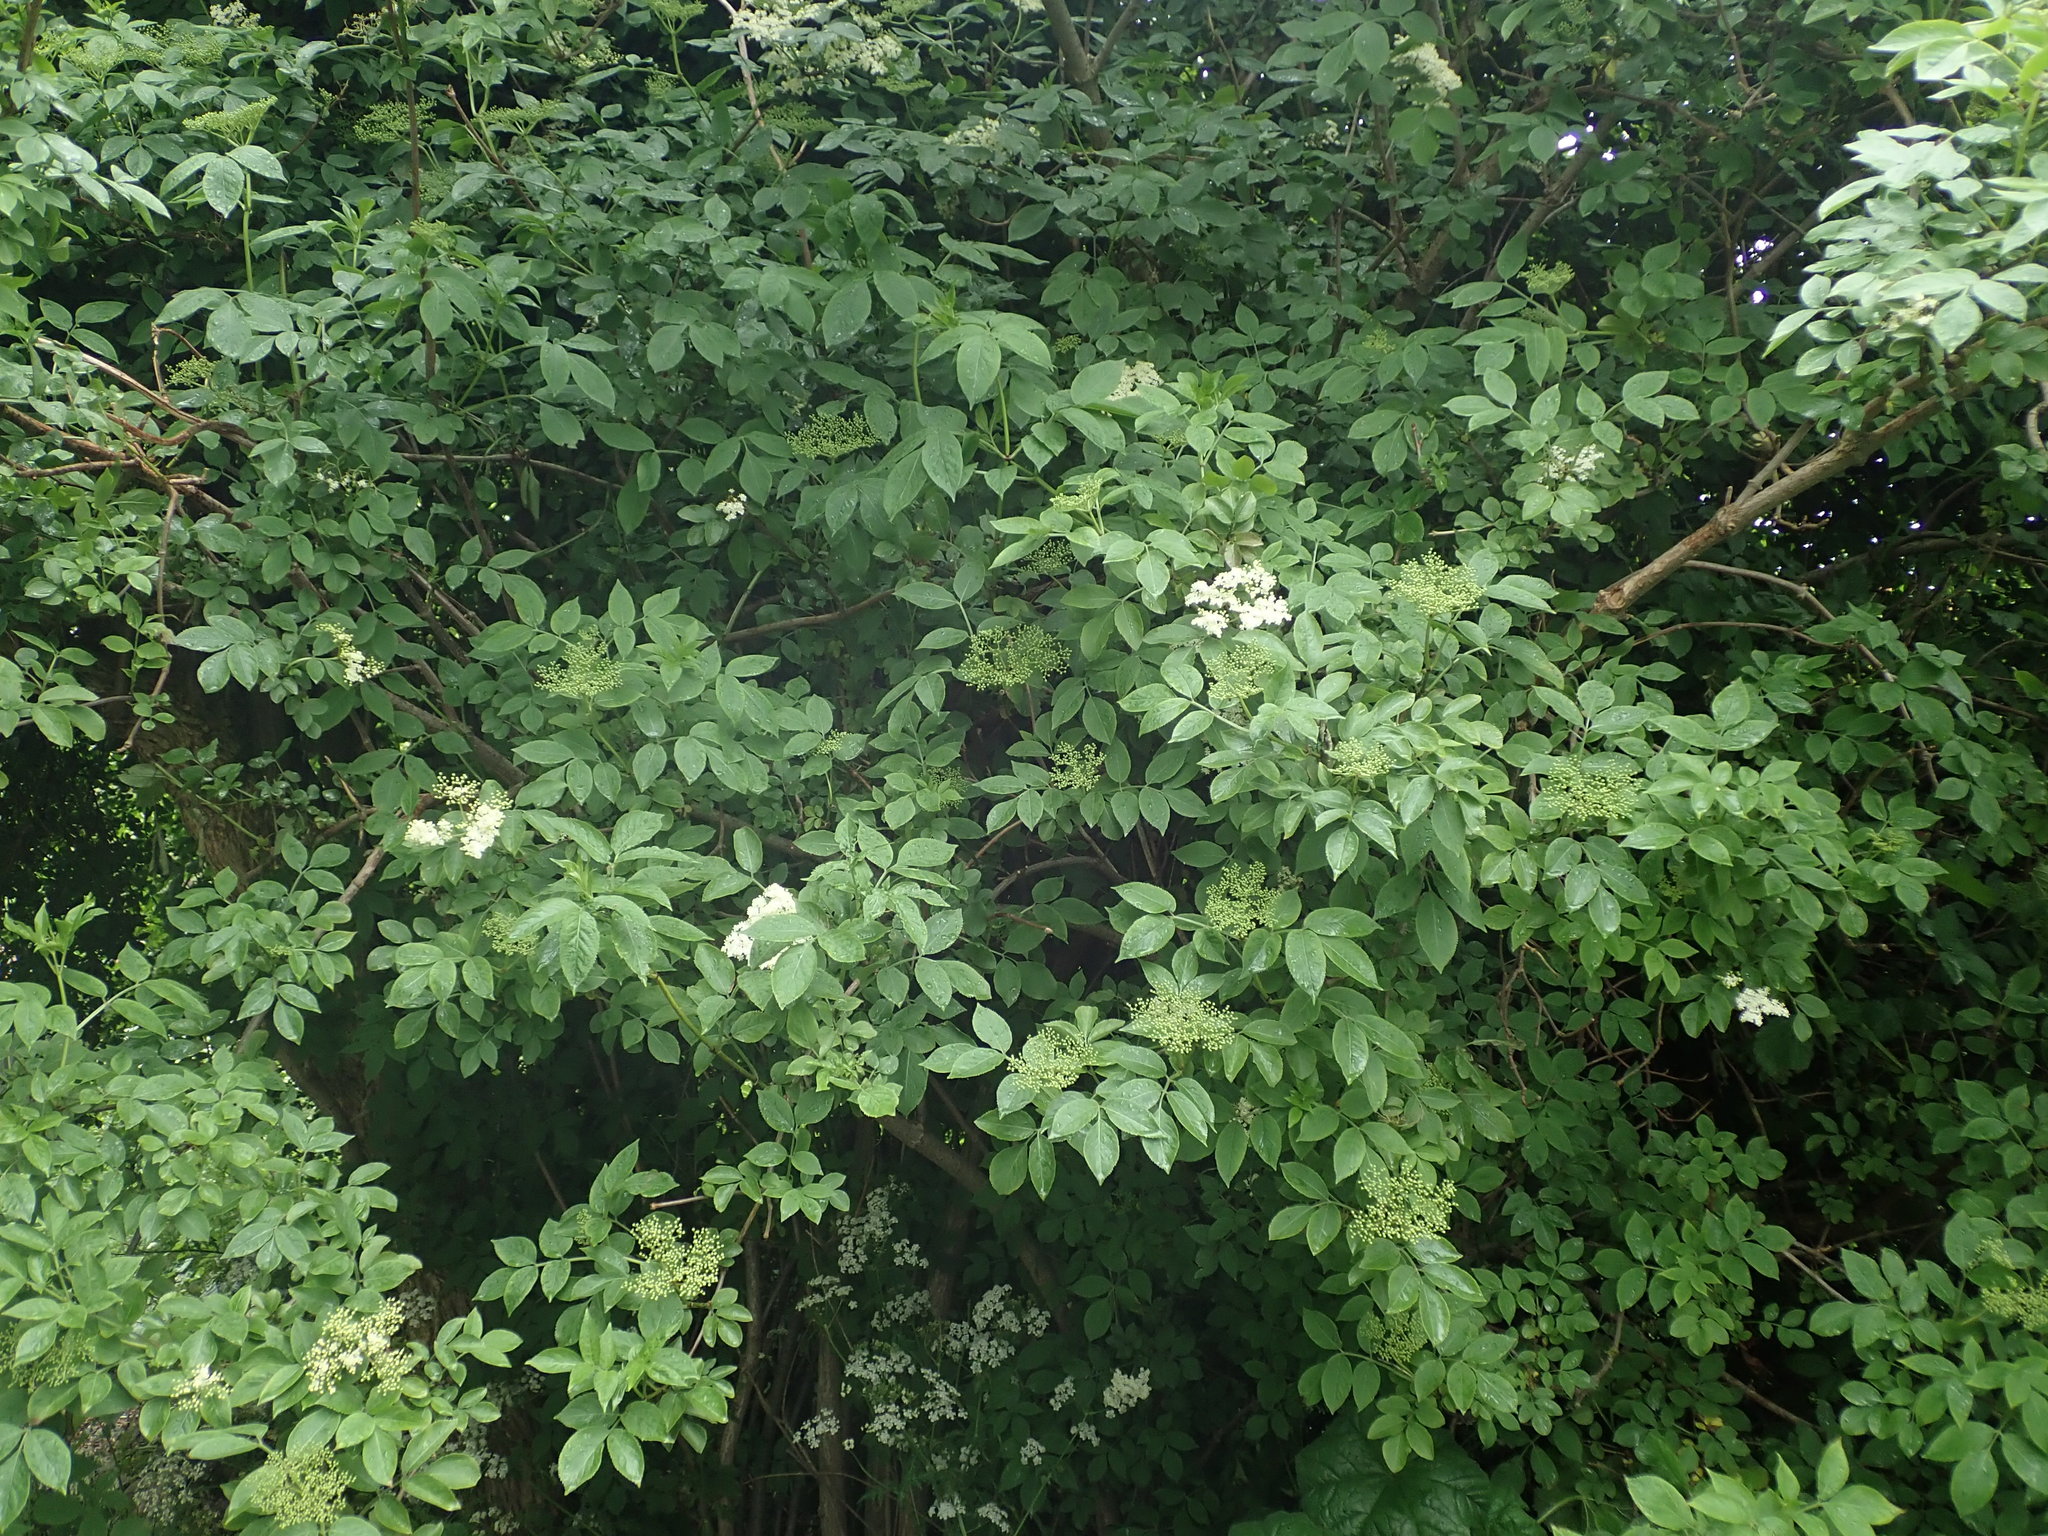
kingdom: Plantae
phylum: Tracheophyta
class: Magnoliopsida
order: Dipsacales
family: Viburnaceae
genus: Sambucus
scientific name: Sambucus nigra
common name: Elder
